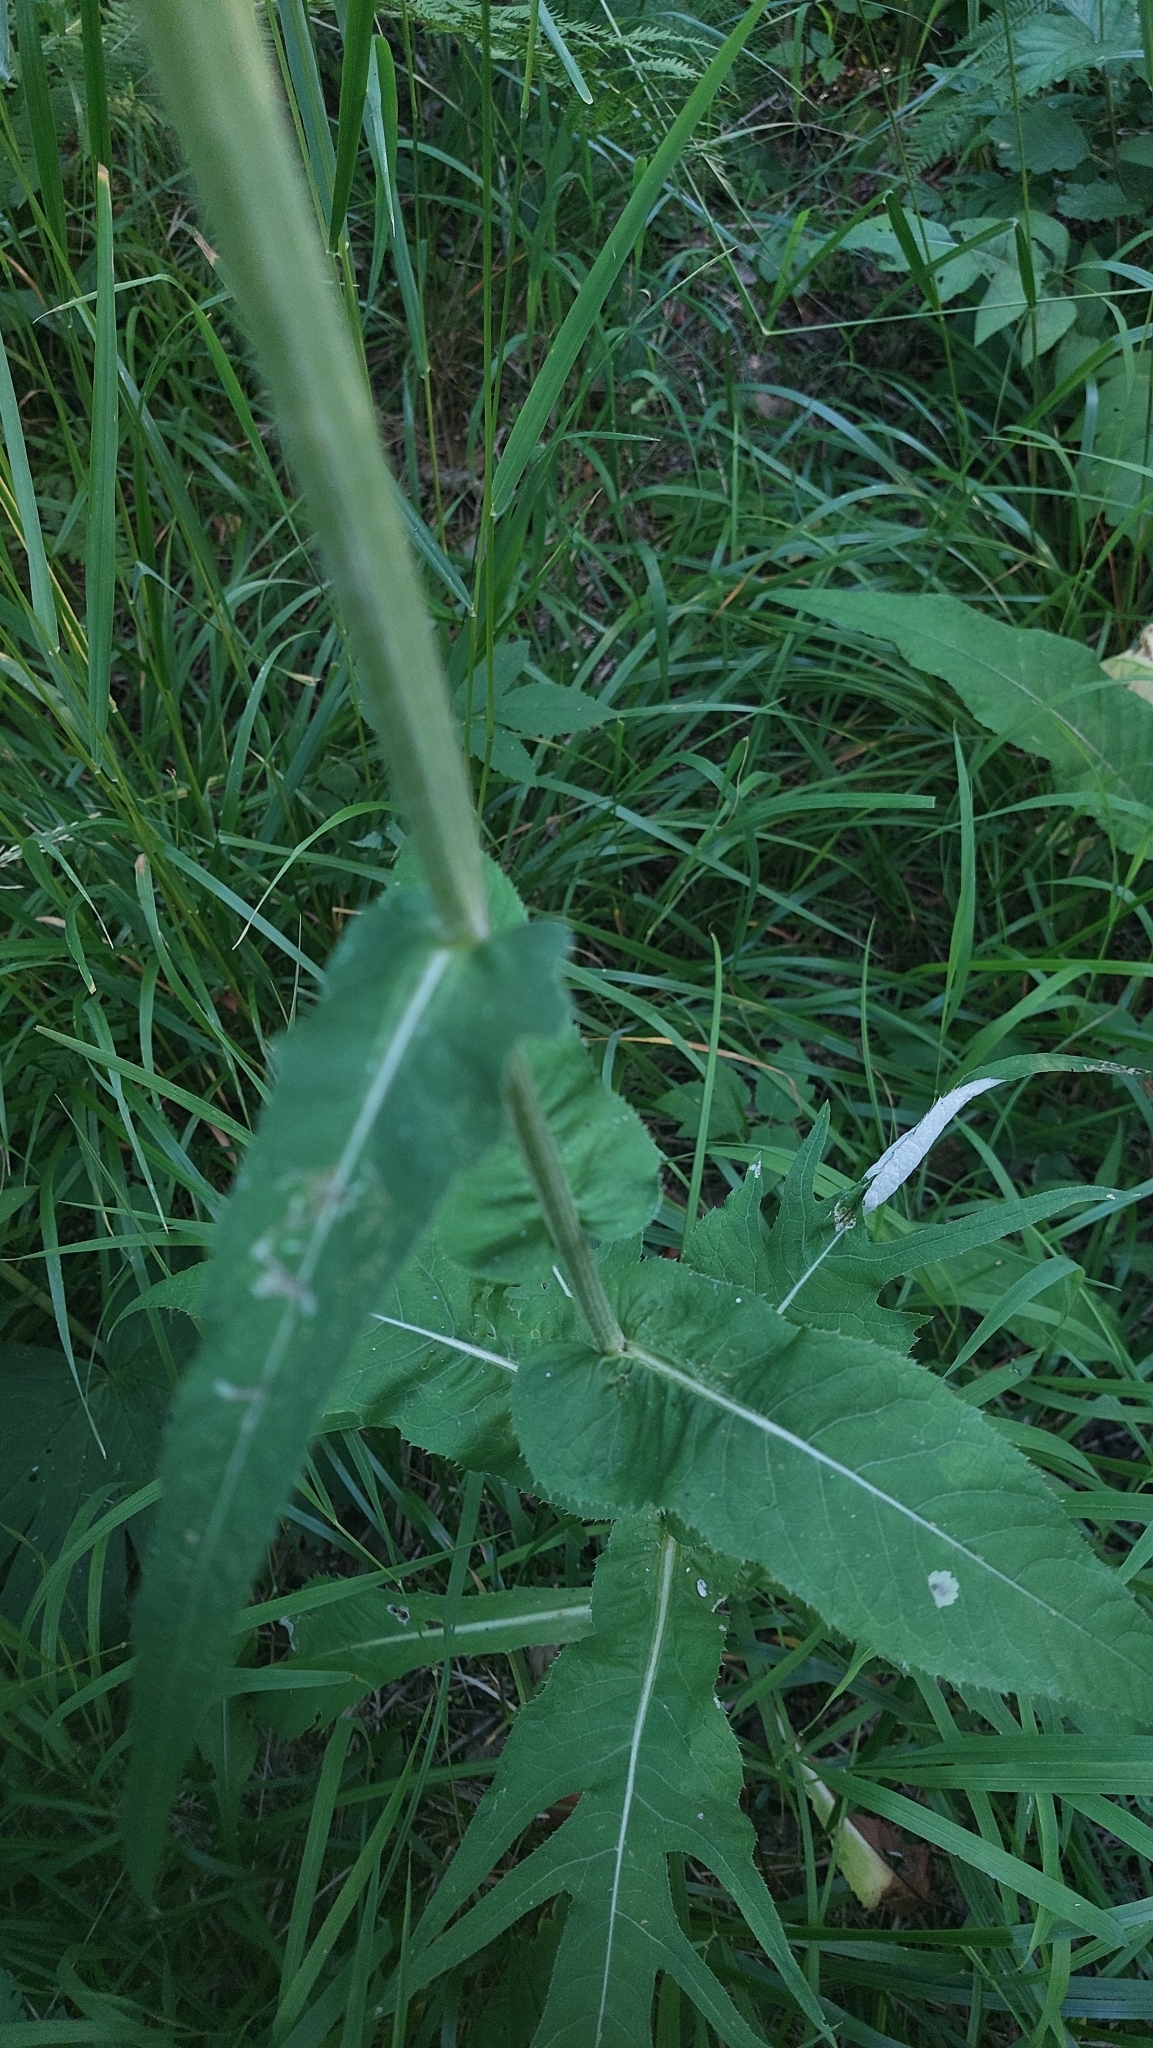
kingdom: Plantae
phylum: Tracheophyta
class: Magnoliopsida
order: Asterales
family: Asteraceae
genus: Cirsium
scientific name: Cirsium heterophyllum
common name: Melancholy thistle
